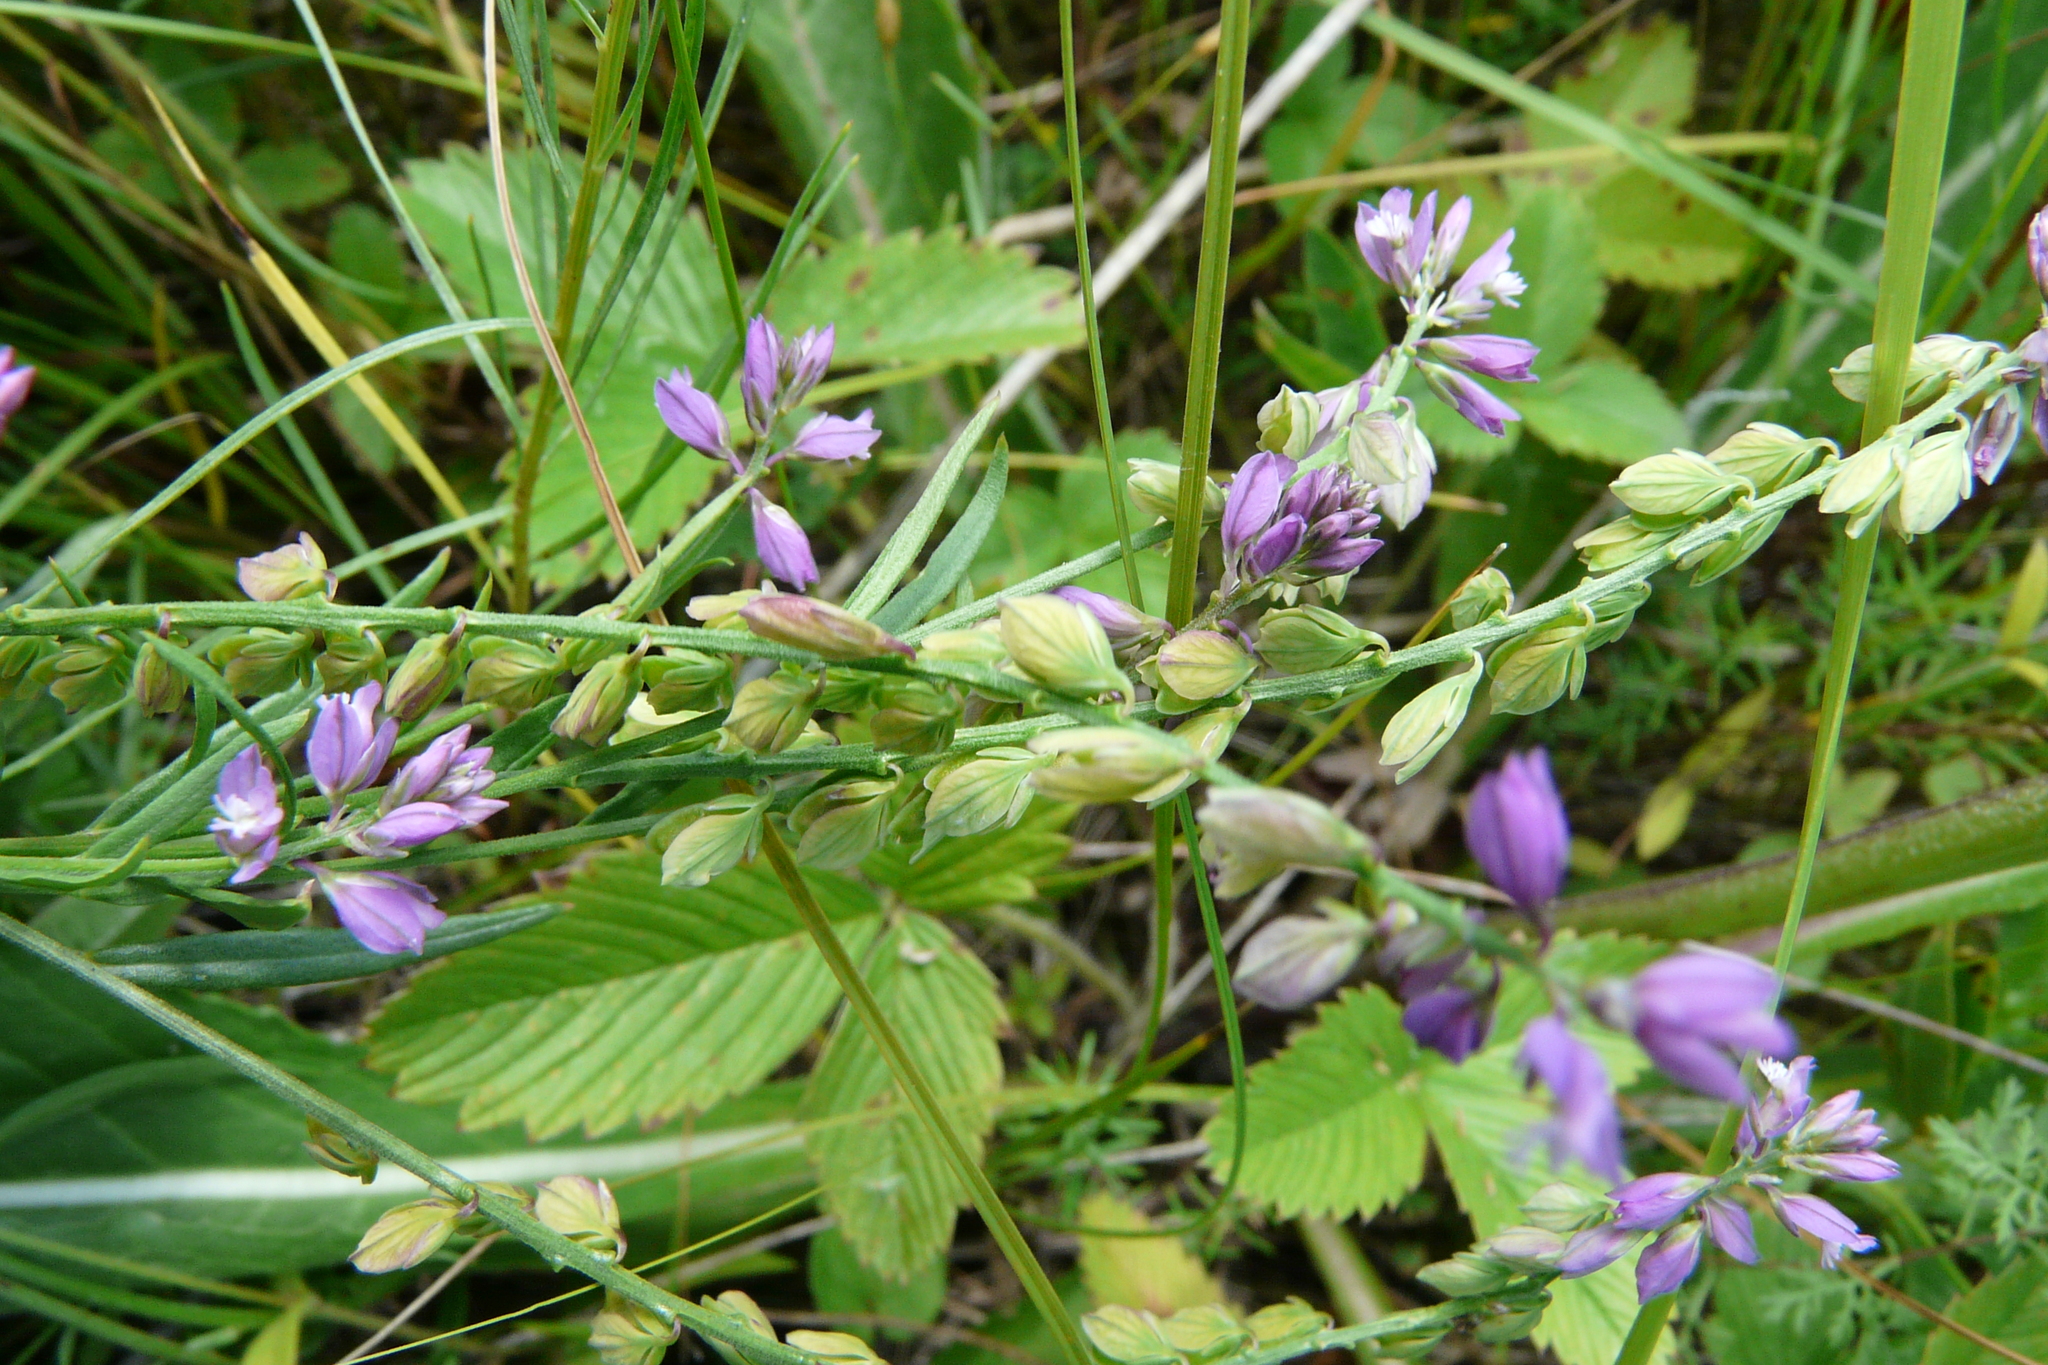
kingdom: Plantae
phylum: Tracheophyta
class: Magnoliopsida
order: Fabales
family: Polygalaceae
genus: Polygala
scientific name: Polygala comosa
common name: Tufted milkwort
